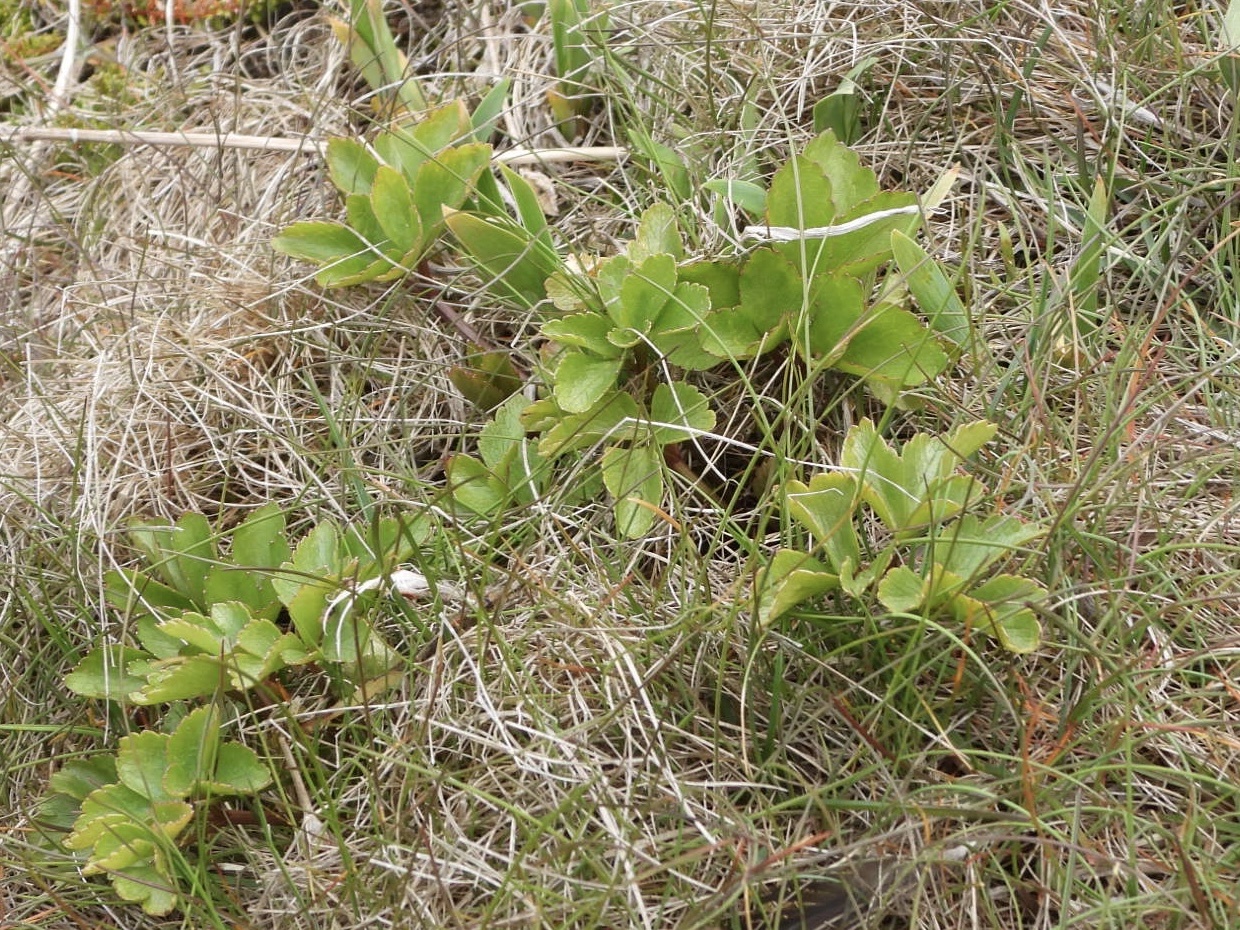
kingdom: Plantae
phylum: Tracheophyta
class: Magnoliopsida
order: Apiales
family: Apiaceae
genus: Ligusticum
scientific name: Ligusticum scothicum
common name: Beach lovage
